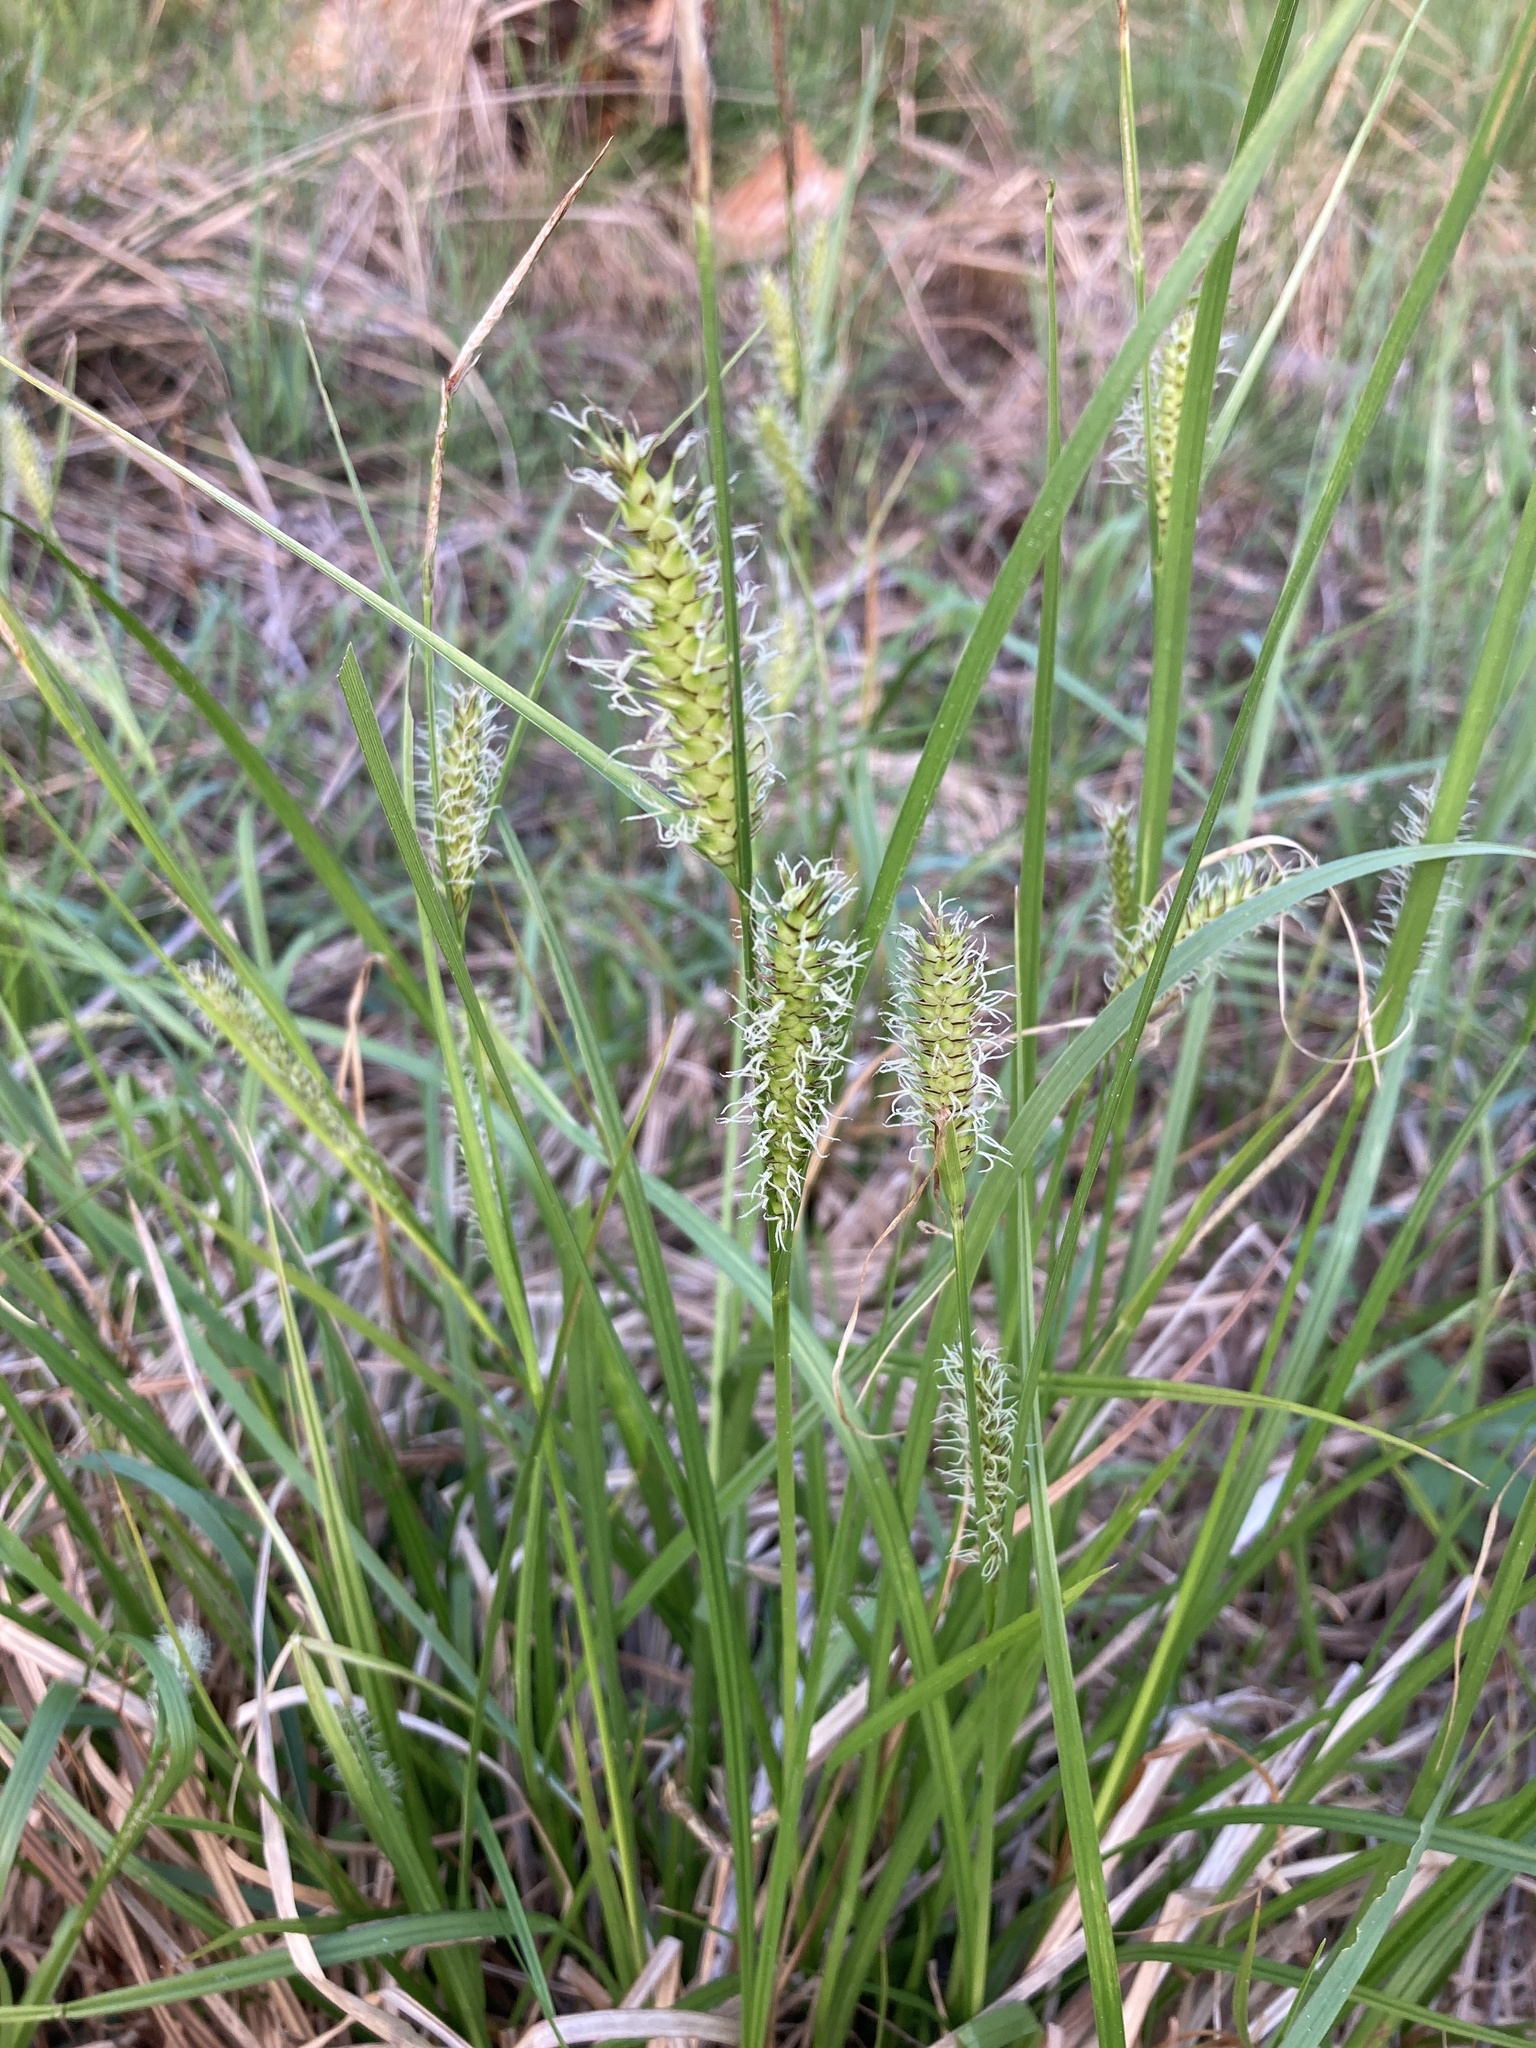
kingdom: Plantae
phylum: Tracheophyta
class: Liliopsida
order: Poales
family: Cyperaceae
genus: Carex
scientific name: Carex vesicaria
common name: Bladder-sedge
